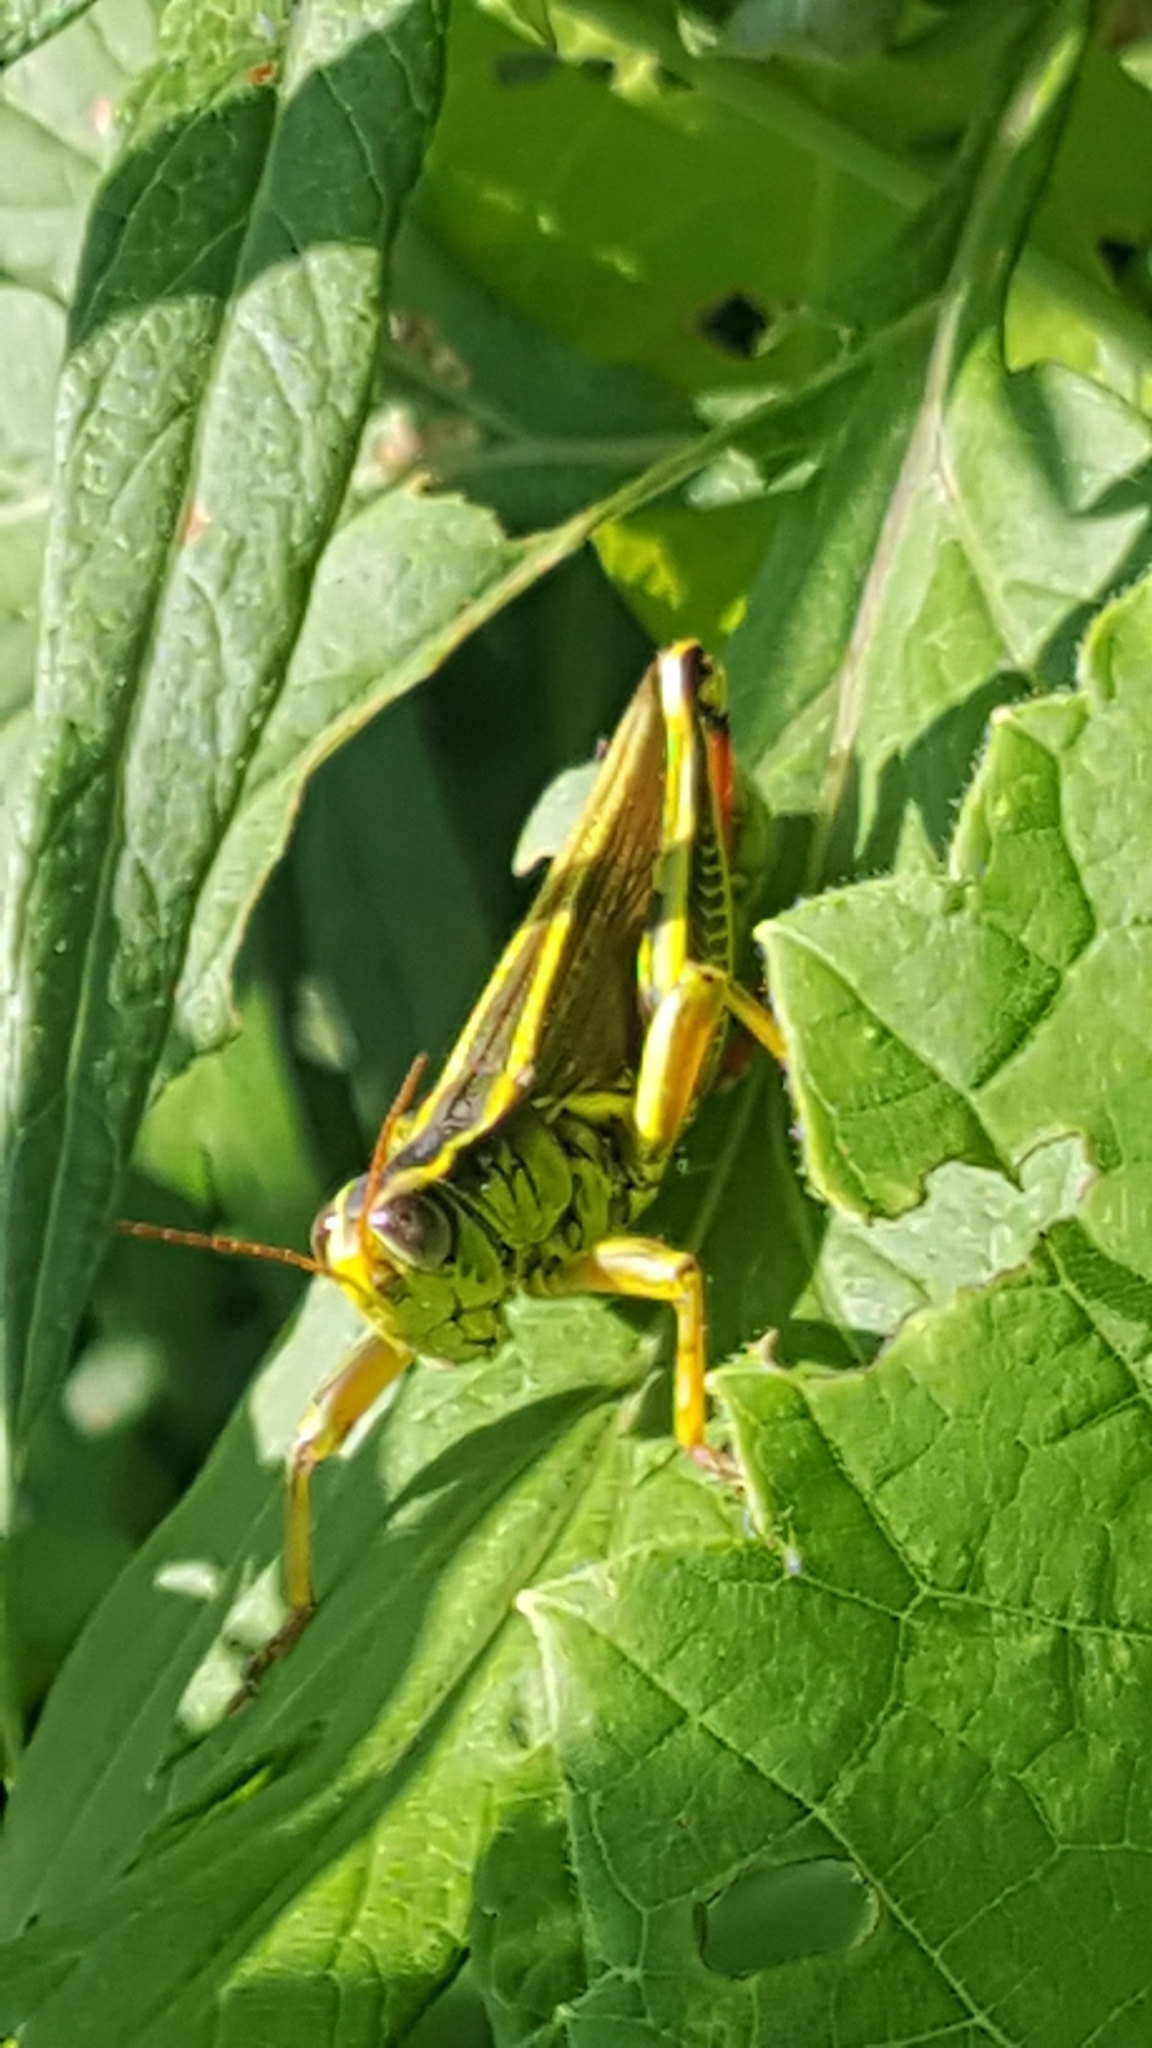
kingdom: Animalia
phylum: Arthropoda
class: Insecta
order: Orthoptera
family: Acrididae
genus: Melanoplus
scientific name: Melanoplus bivittatus
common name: Two-striped grasshopper
